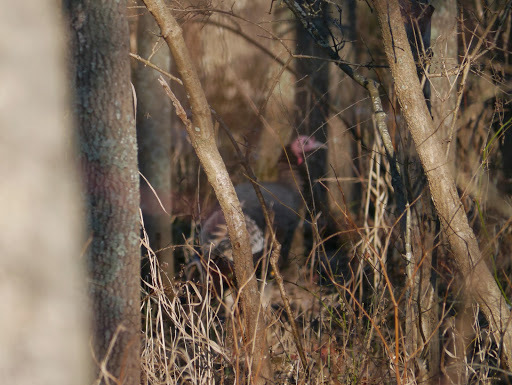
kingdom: Animalia
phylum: Chordata
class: Aves
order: Galliformes
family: Phasianidae
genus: Meleagris
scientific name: Meleagris gallopavo
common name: Wild turkey
